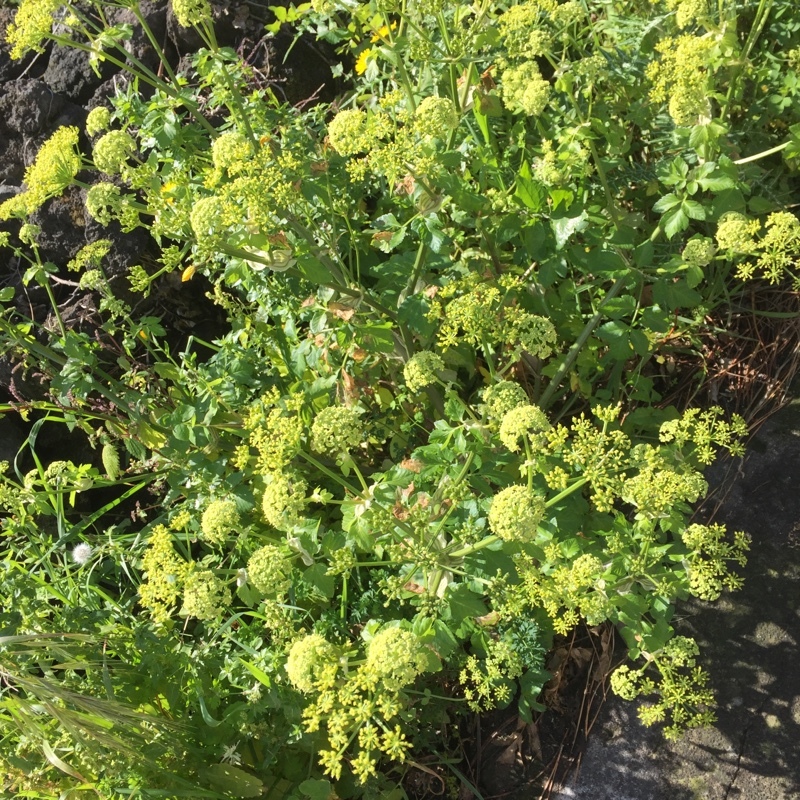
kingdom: Plantae
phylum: Tracheophyta
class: Magnoliopsida
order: Apiales
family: Apiaceae
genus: Smyrnium
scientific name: Smyrnium olusatrum
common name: Alexanders
